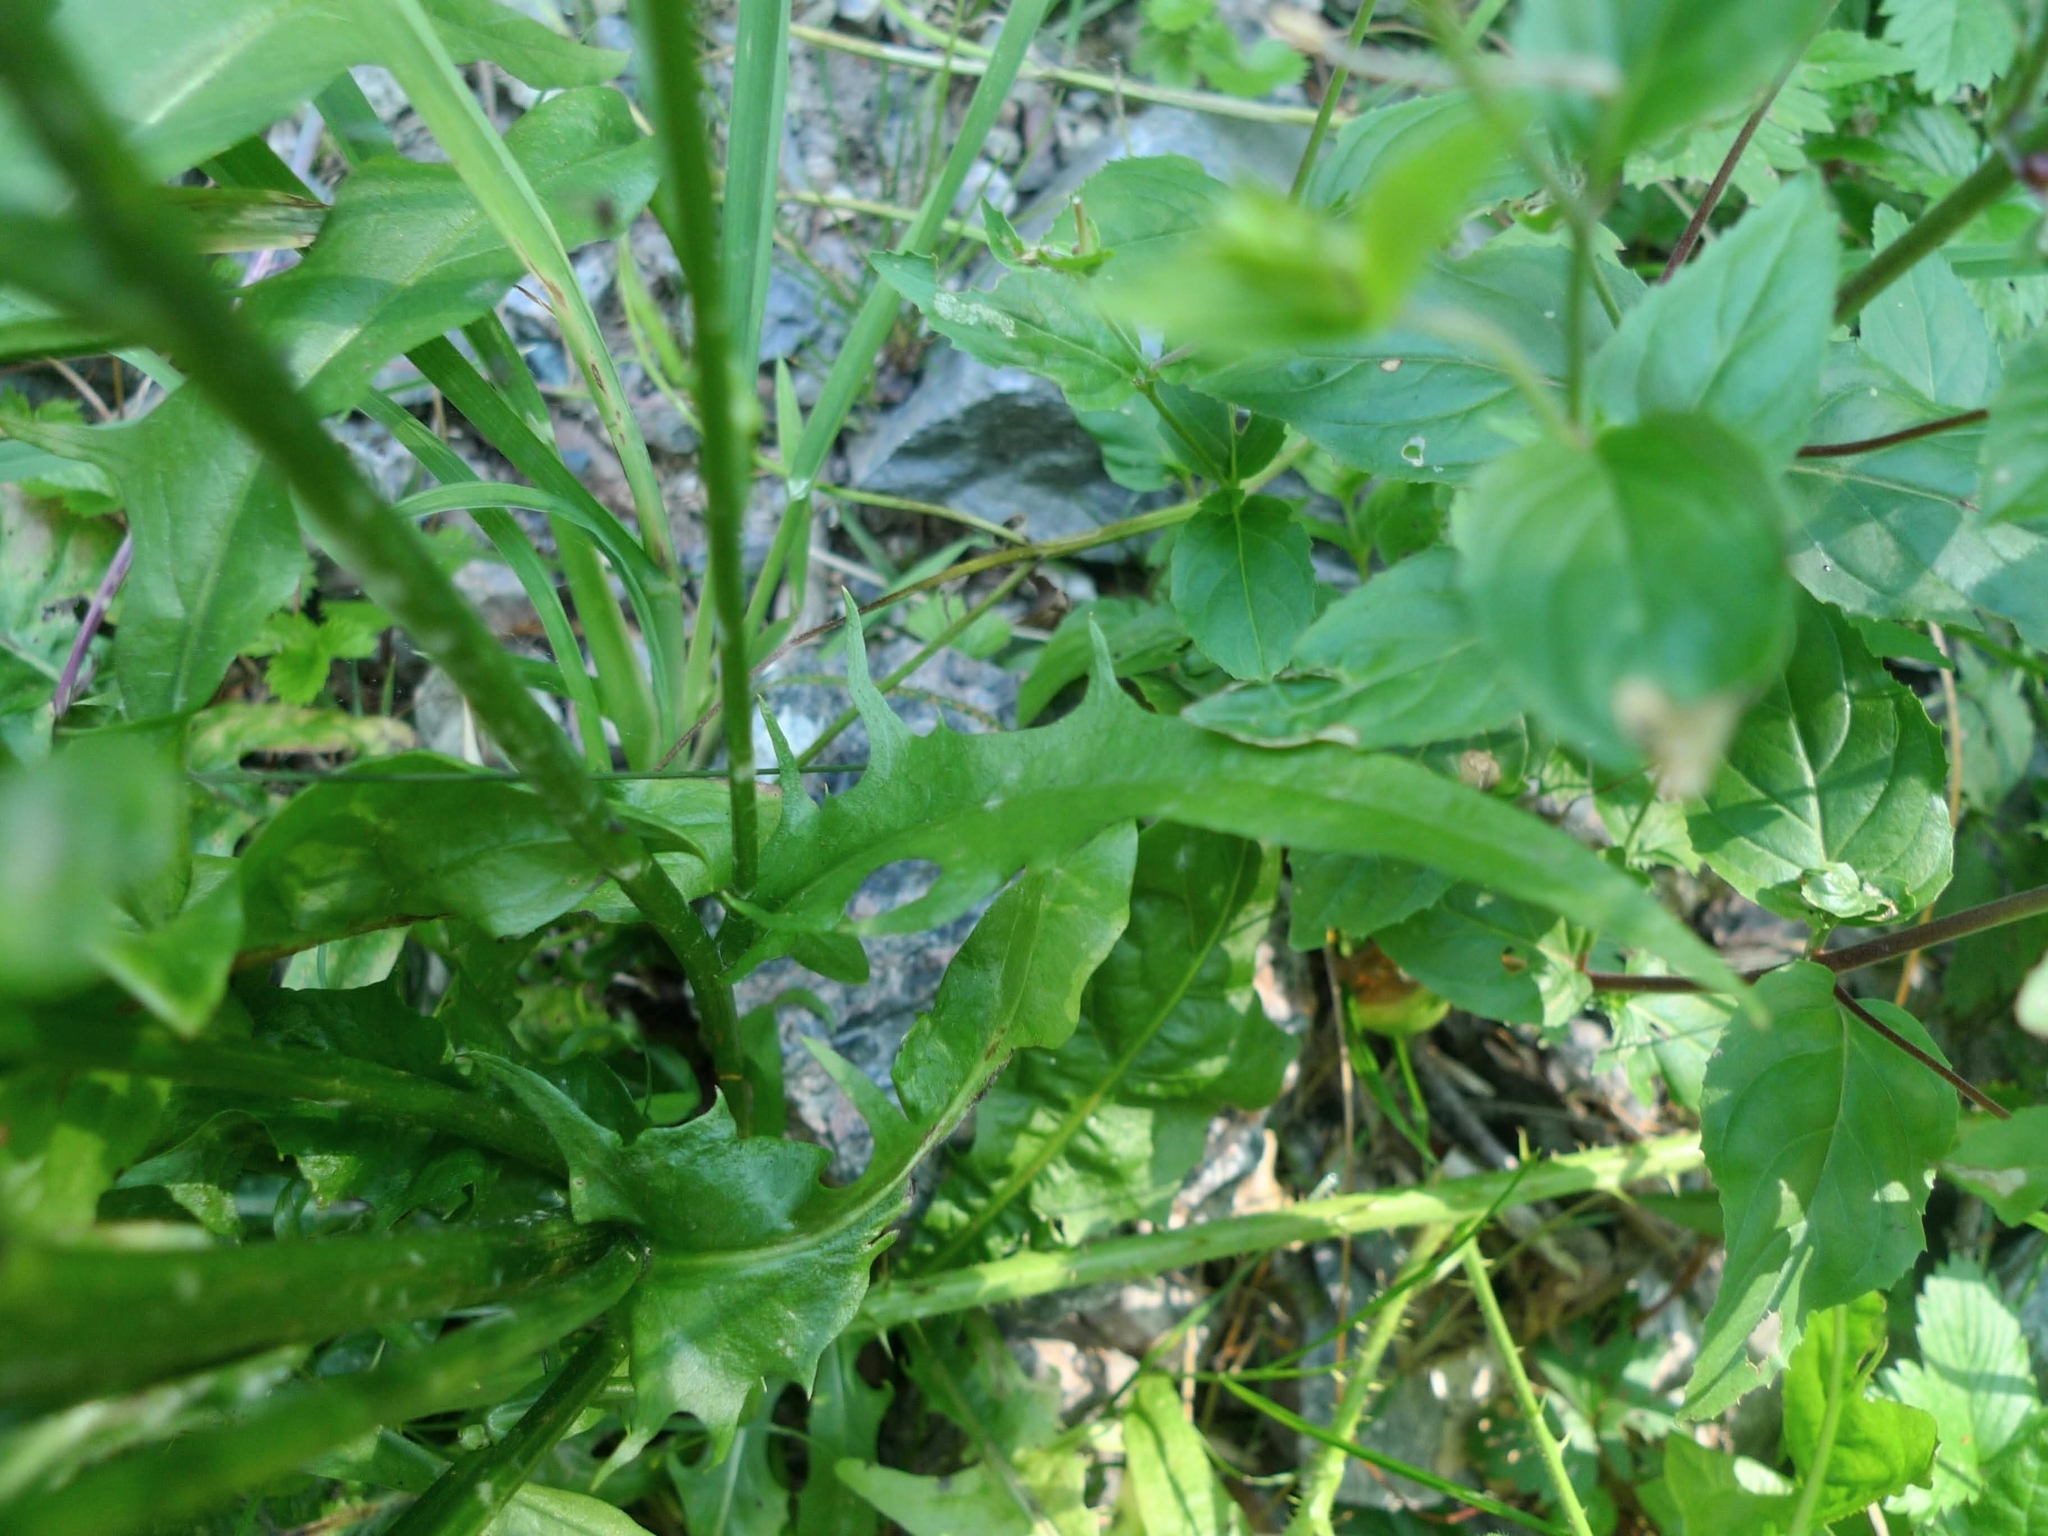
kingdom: Plantae
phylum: Tracheophyta
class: Magnoliopsida
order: Asterales
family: Asteraceae
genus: Crepis
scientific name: Crepis biennis
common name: Rough hawk's-beard
